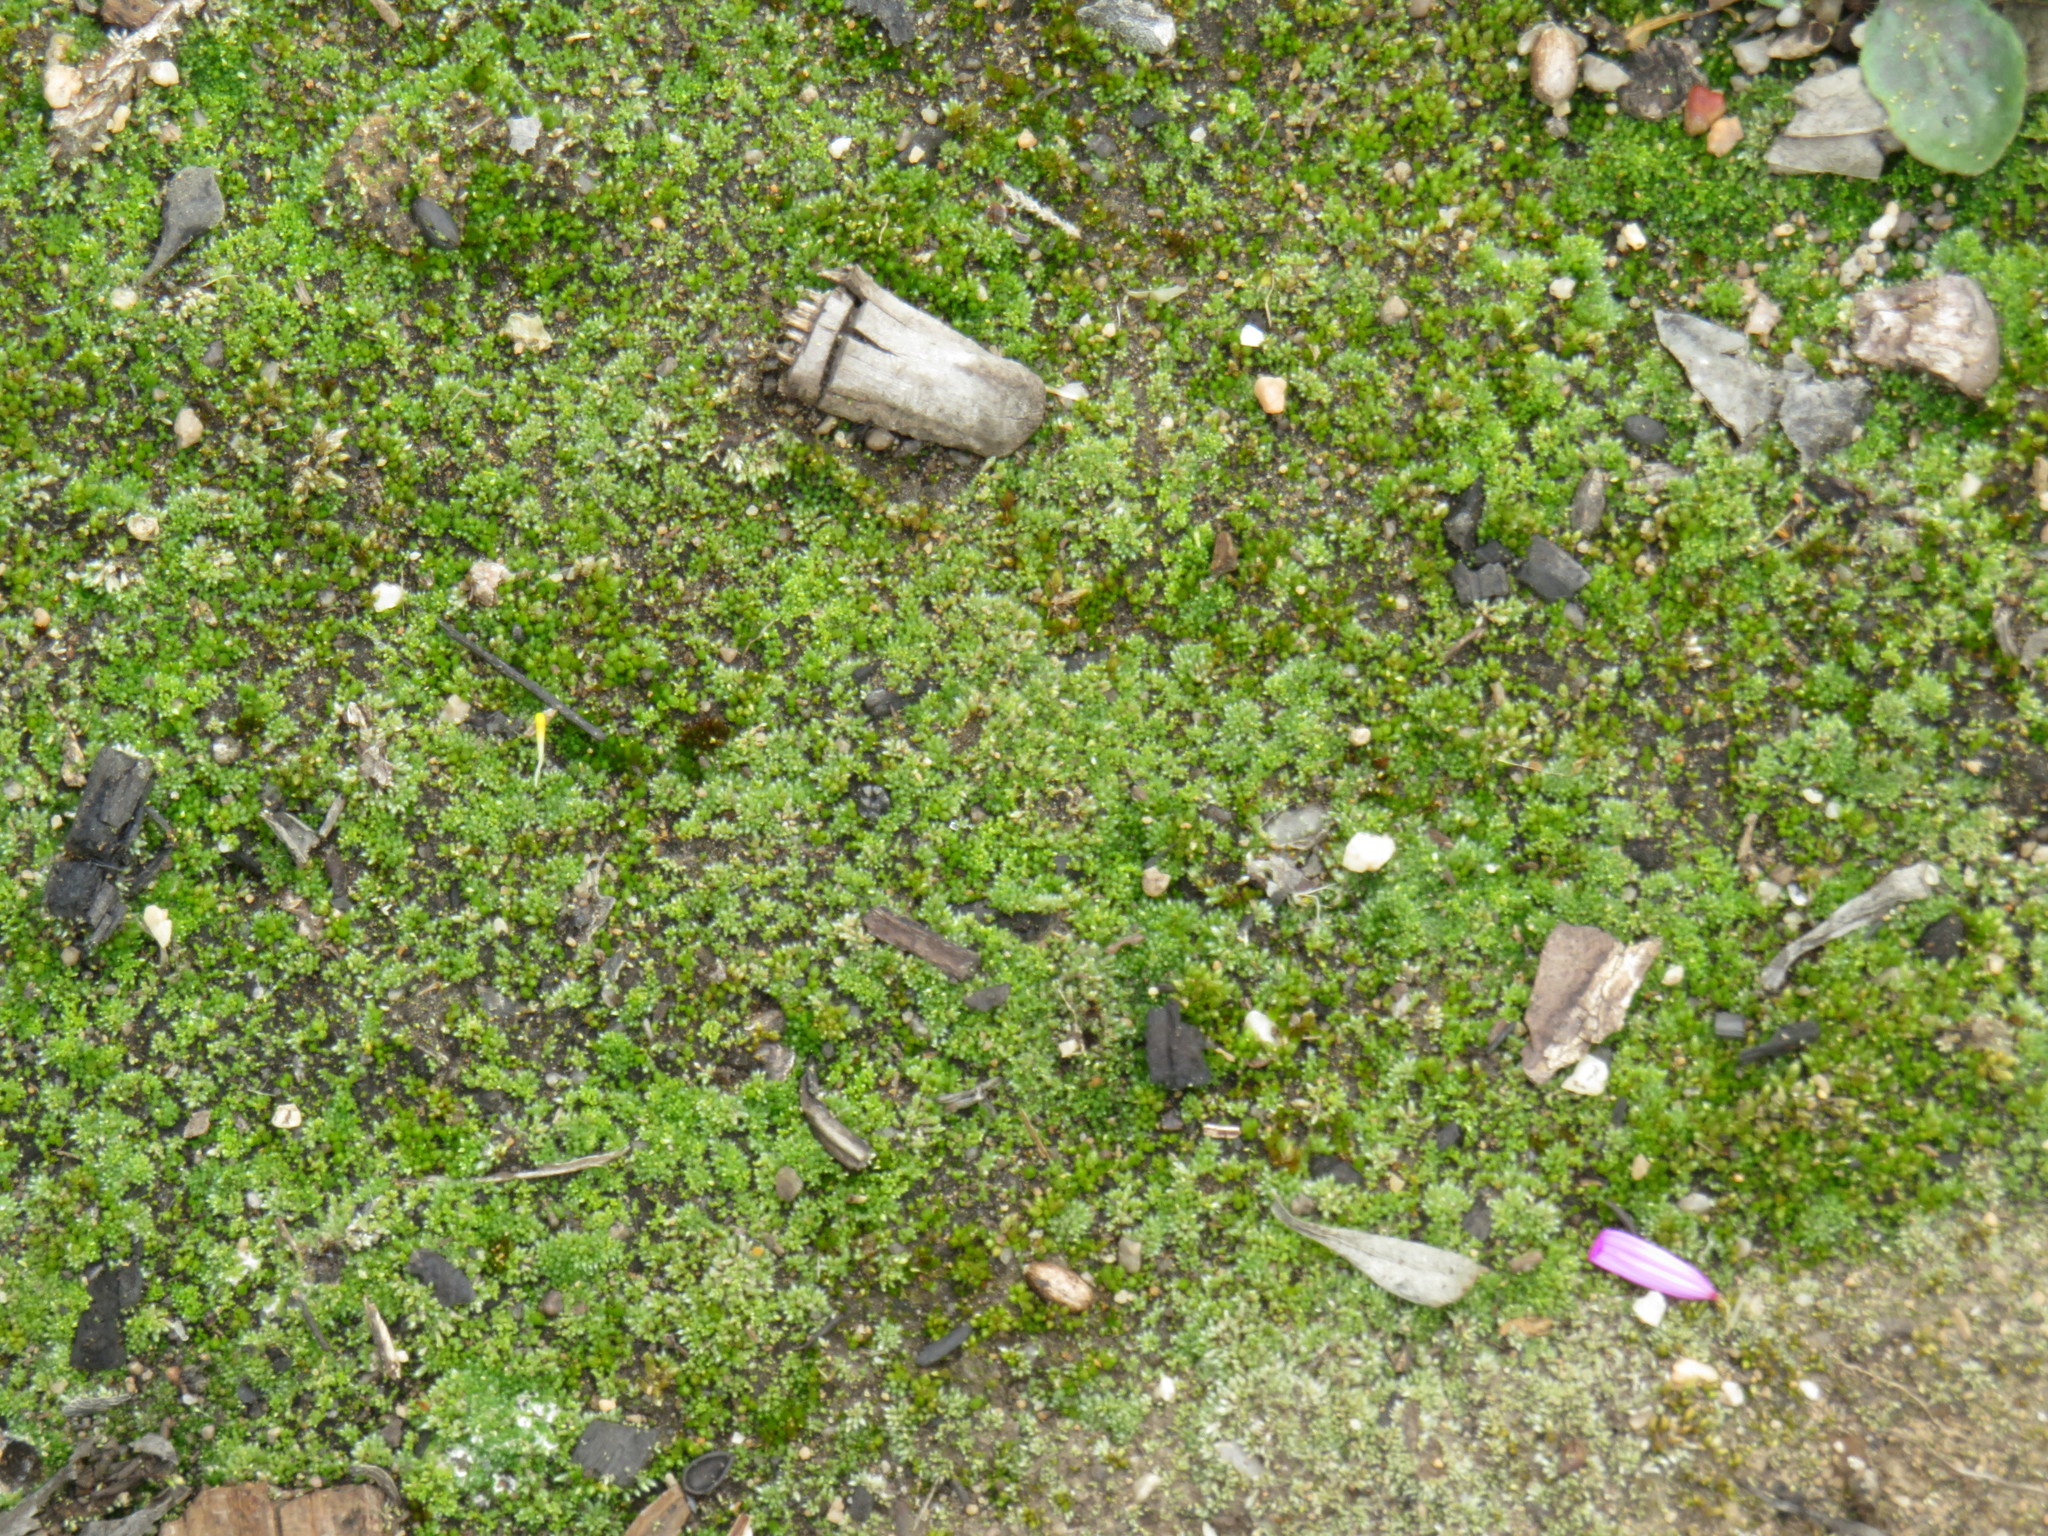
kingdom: Plantae
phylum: Bryophyta
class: Bryopsida
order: Bryales
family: Bryaceae
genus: Bryum
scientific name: Bryum argenteum
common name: Silver-moss
